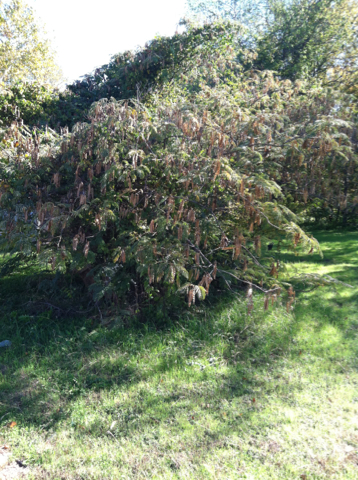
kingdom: Plantae
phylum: Tracheophyta
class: Magnoliopsida
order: Fabales
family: Fabaceae
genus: Albizia
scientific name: Albizia julibrissin
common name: Silktree
